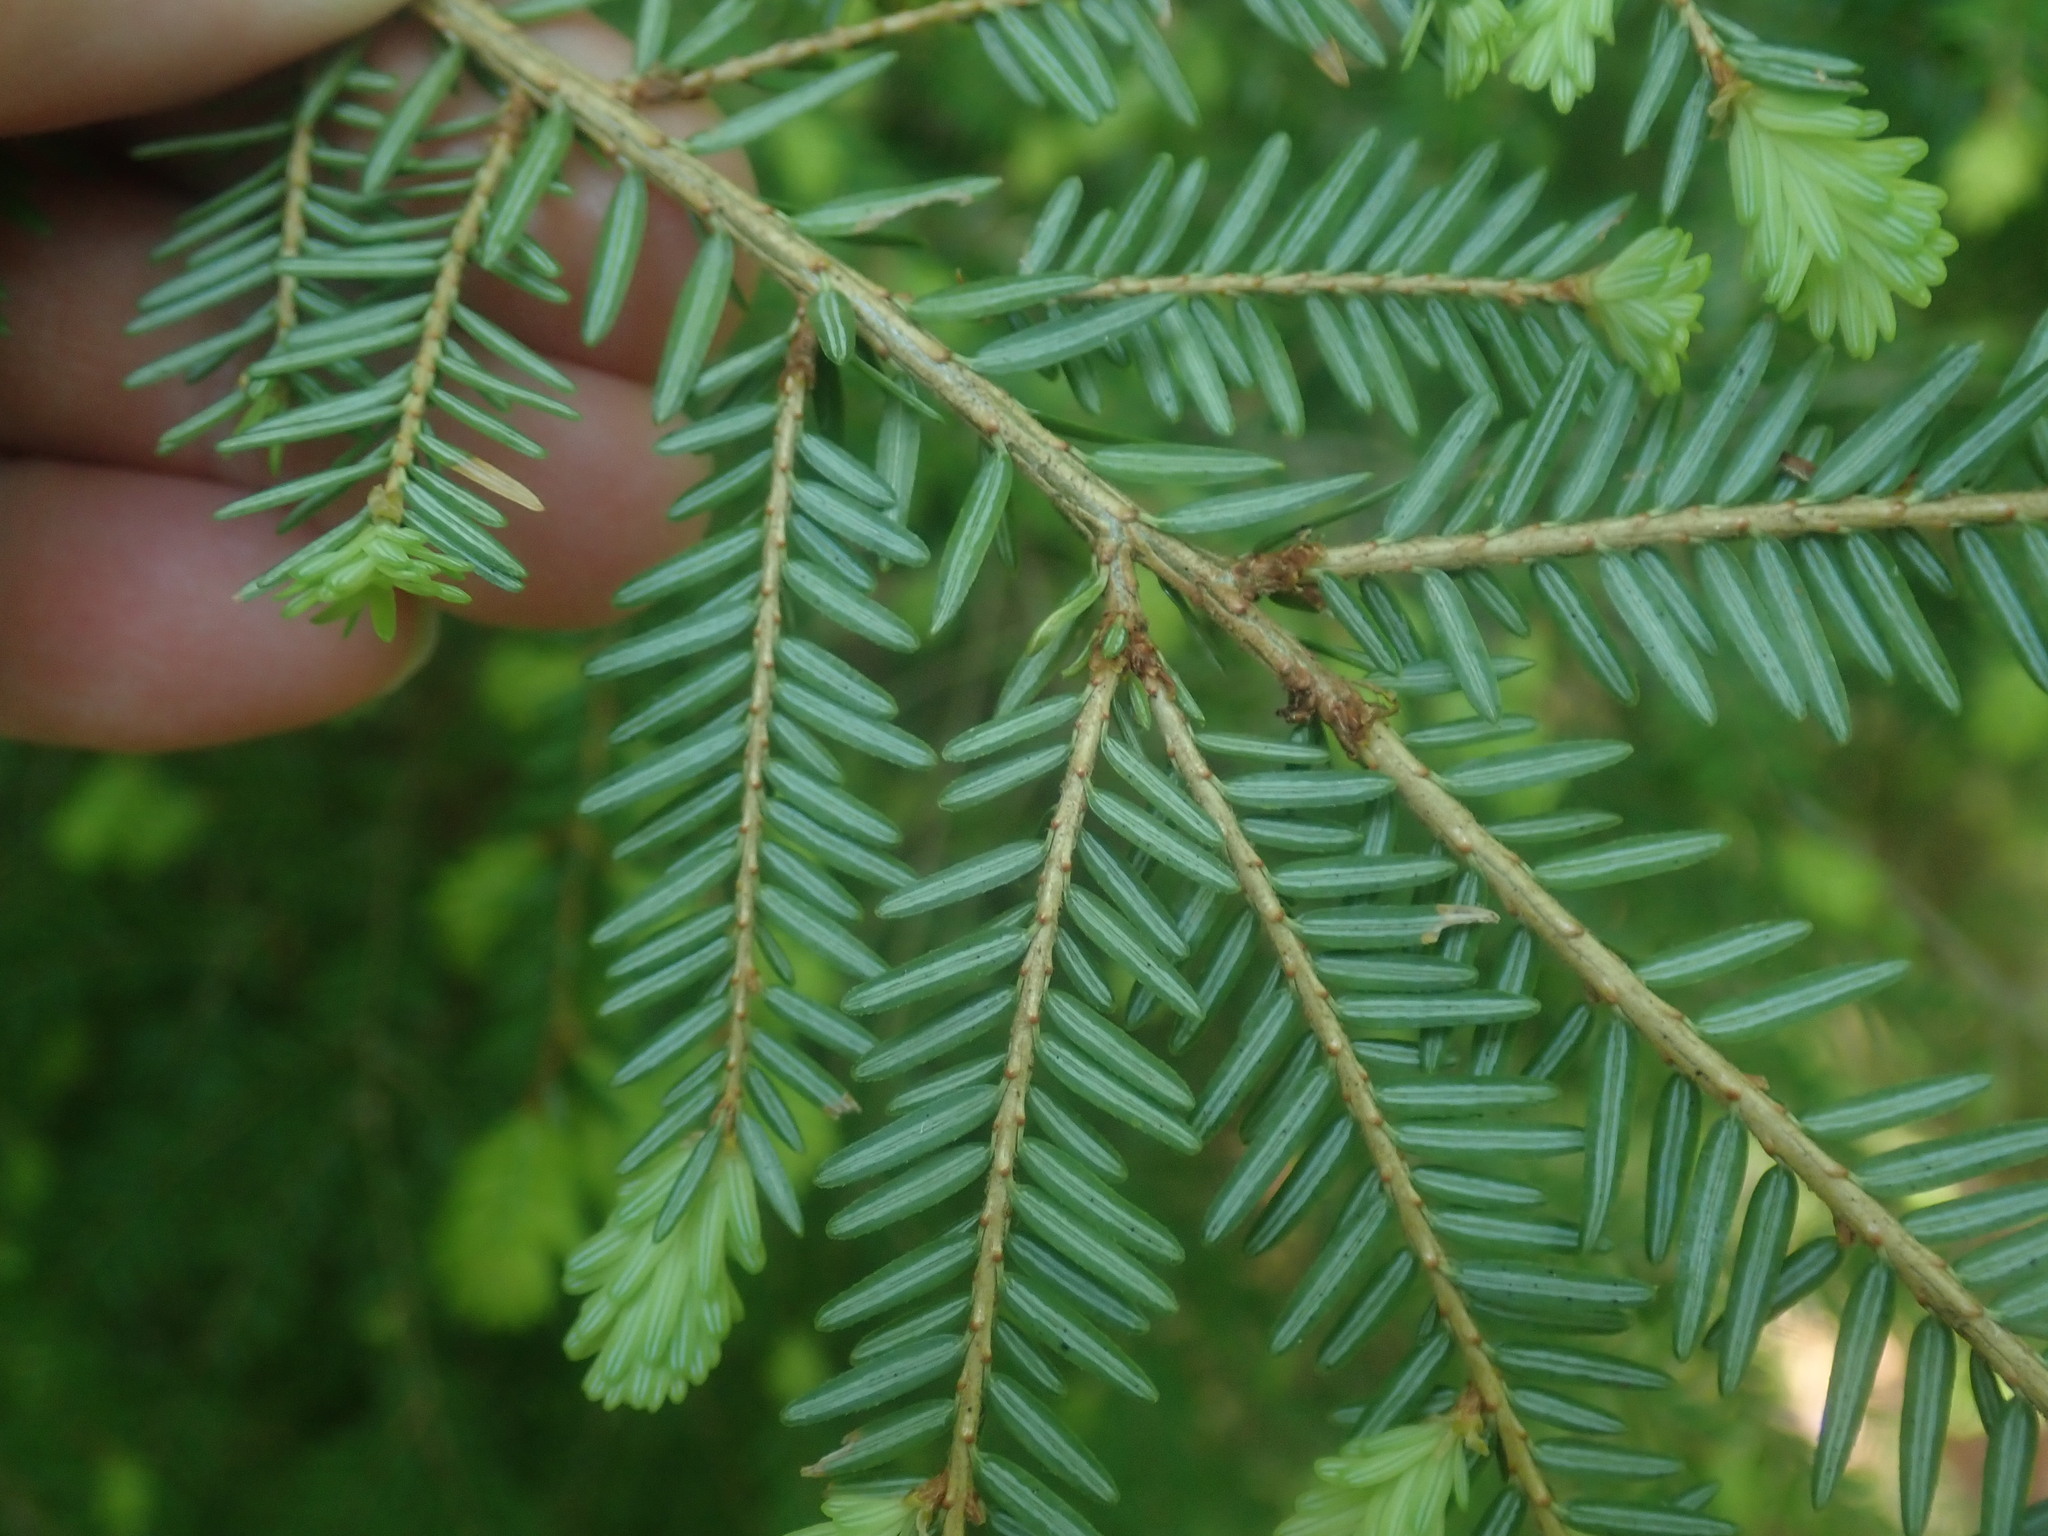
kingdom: Plantae
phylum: Tracheophyta
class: Pinopsida
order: Pinales
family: Pinaceae
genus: Tsuga
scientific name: Tsuga canadensis
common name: Eastern hemlock
